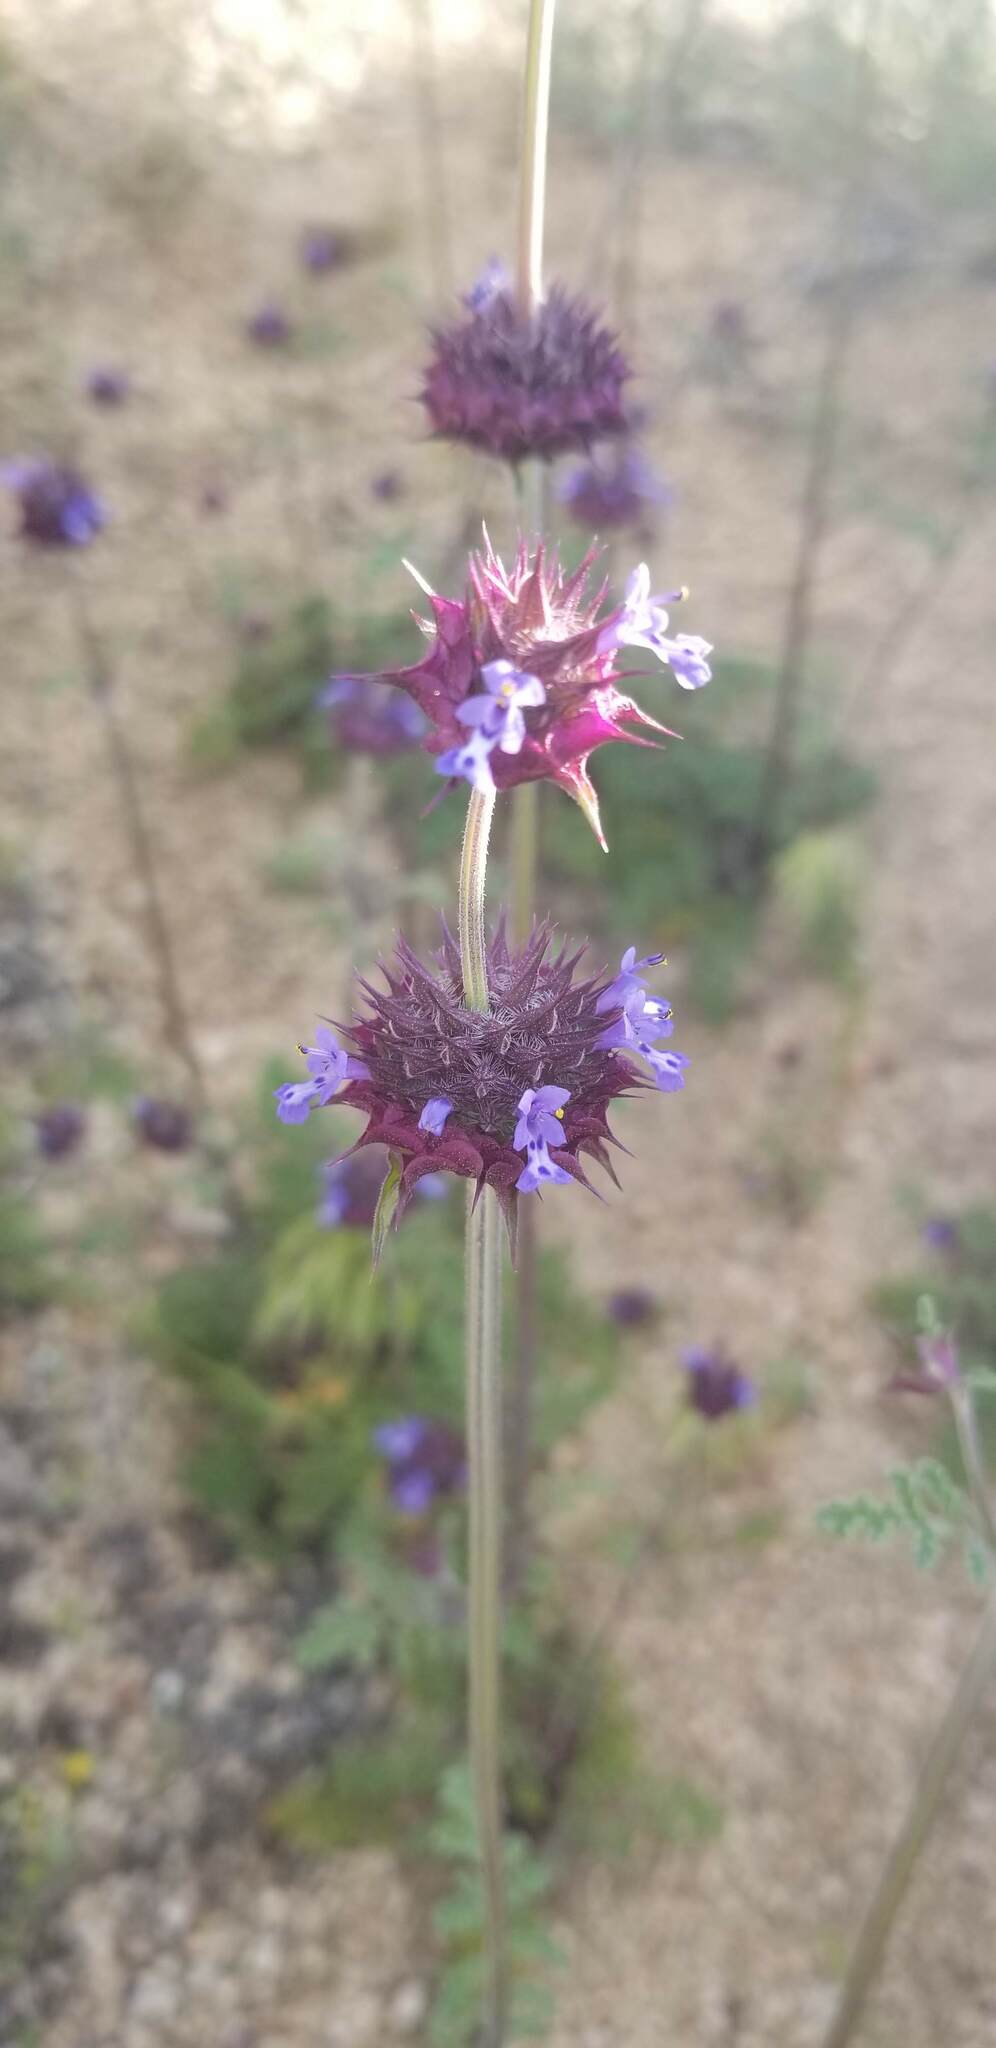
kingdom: Plantae
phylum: Tracheophyta
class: Magnoliopsida
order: Lamiales
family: Lamiaceae
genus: Salvia
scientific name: Salvia columbariae
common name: Chia
